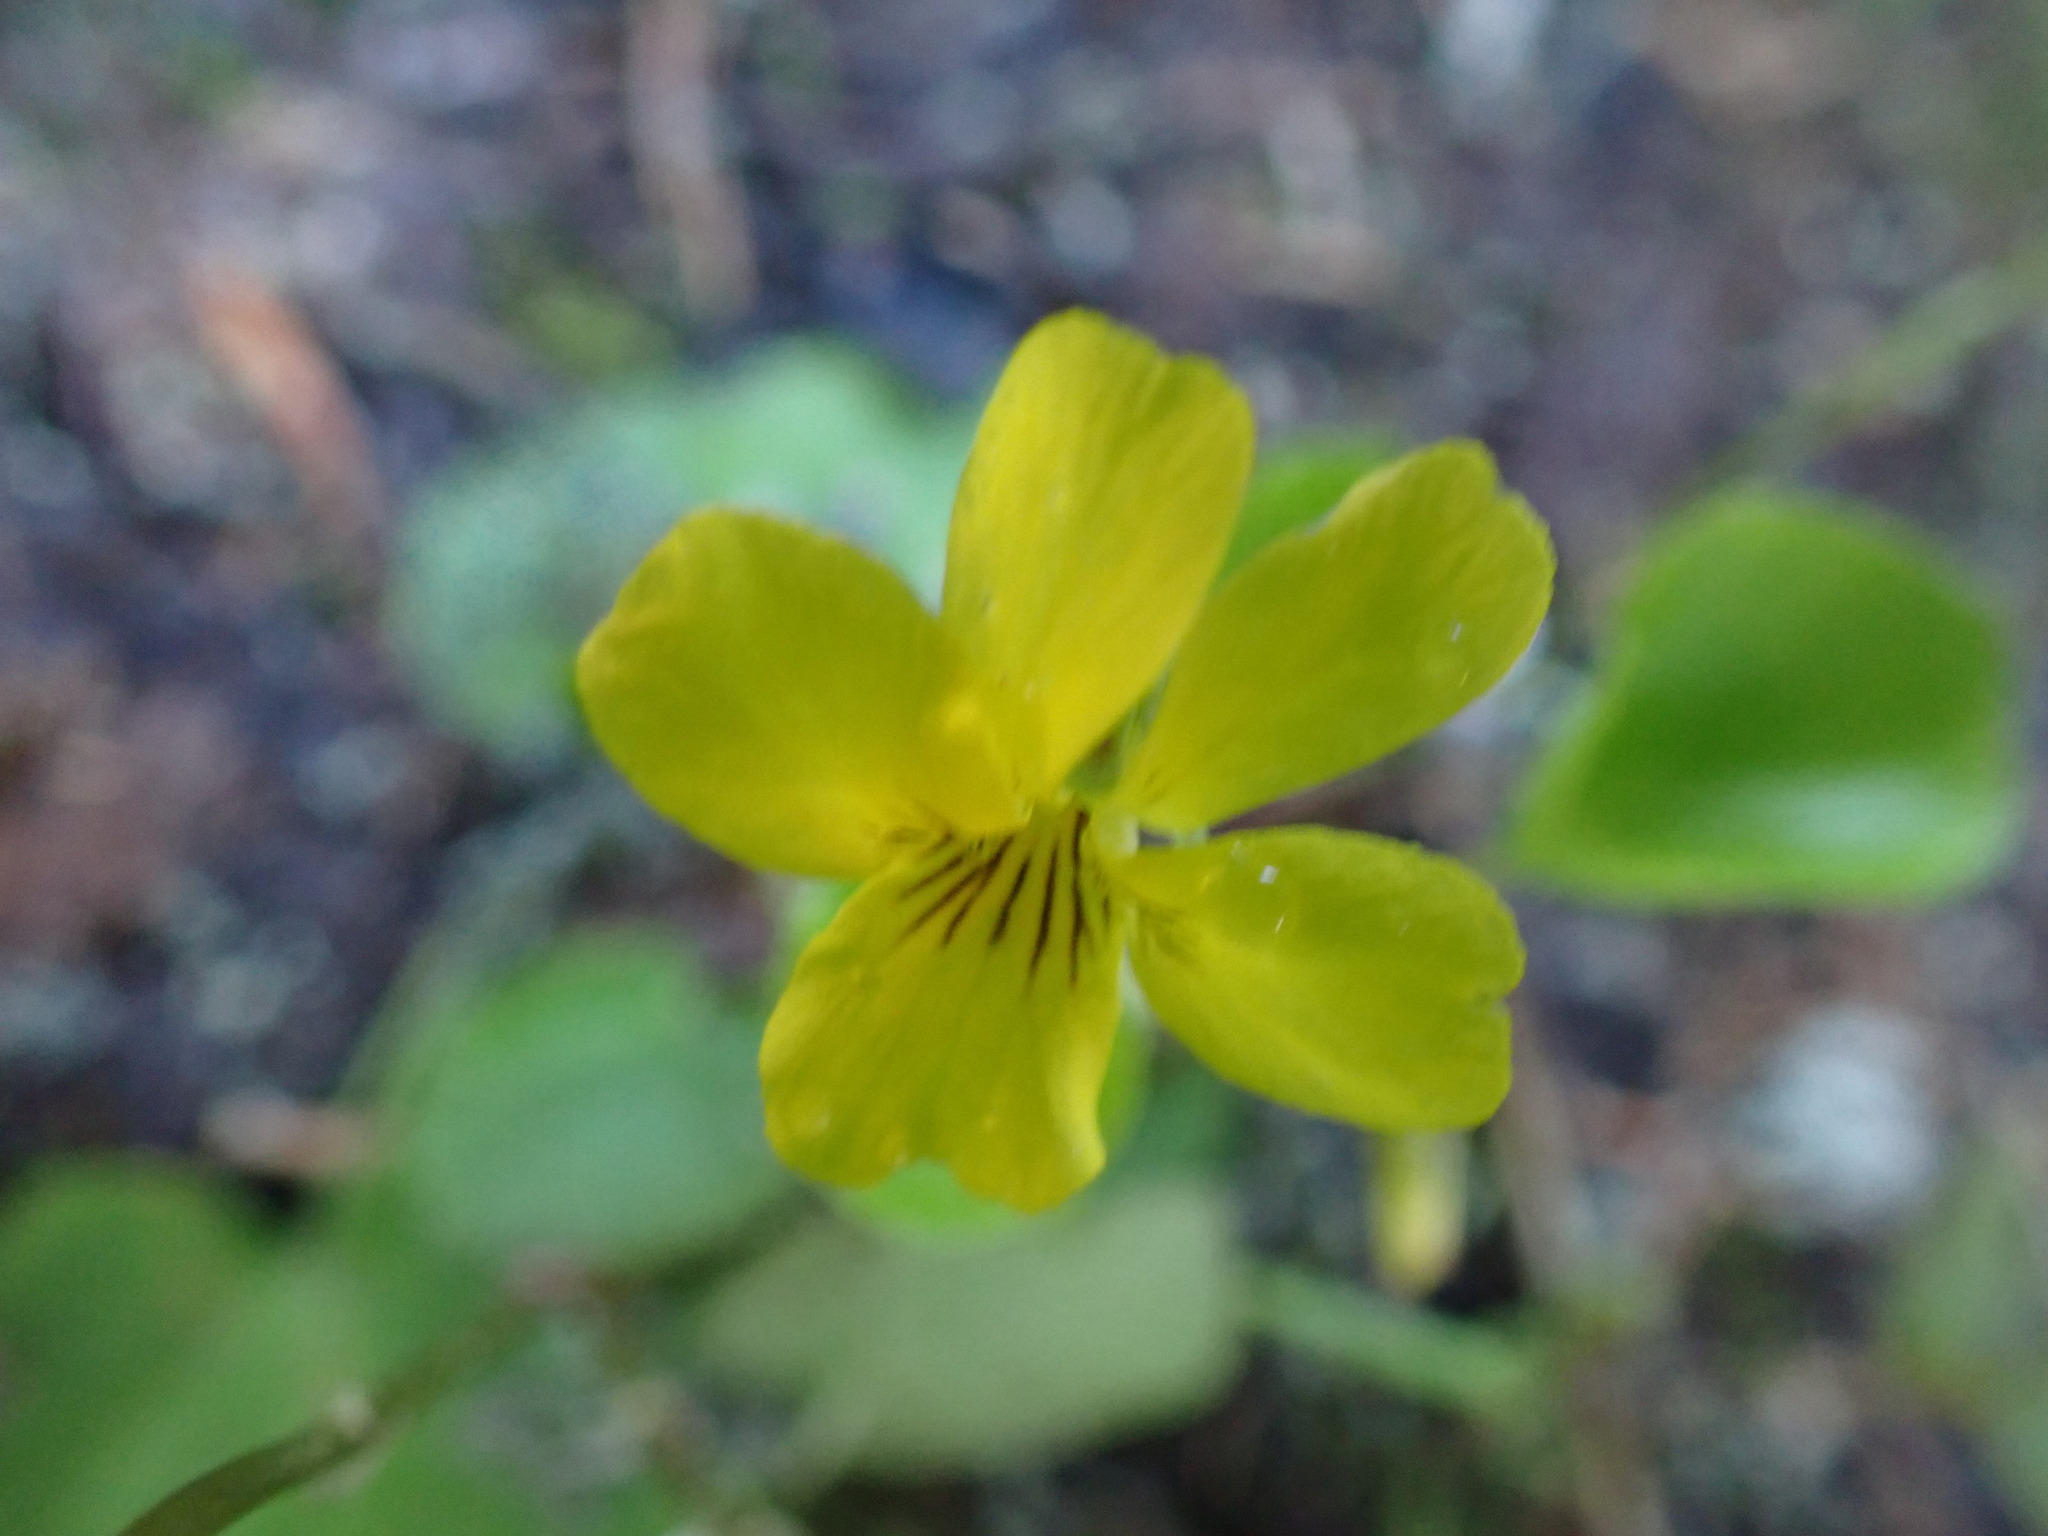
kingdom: Plantae
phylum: Tracheophyta
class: Magnoliopsida
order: Malpighiales
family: Violaceae
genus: Viola
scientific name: Viola orbiculata
